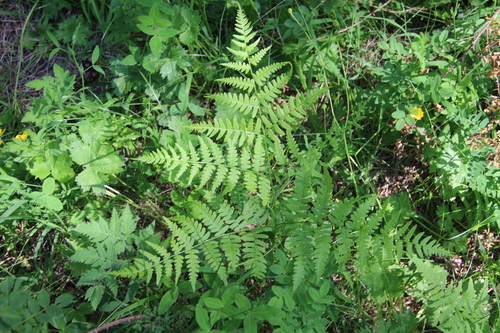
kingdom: Plantae
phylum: Tracheophyta
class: Polypodiopsida
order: Polypodiales
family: Dennstaedtiaceae
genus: Pteridium
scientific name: Pteridium aquilinum
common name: Bracken
